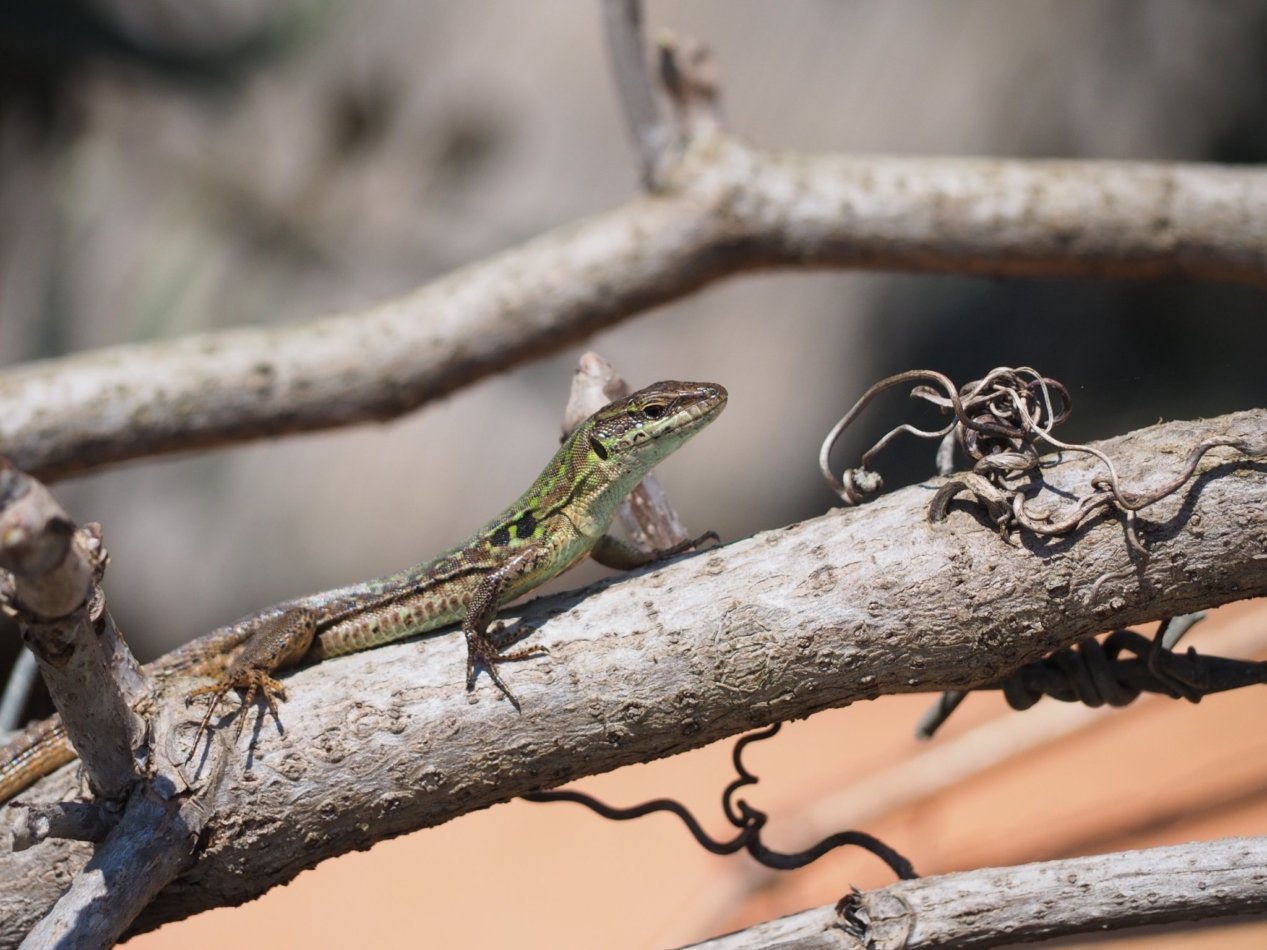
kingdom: Animalia
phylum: Chordata
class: Squamata
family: Lacertidae
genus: Podarcis
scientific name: Podarcis siculus
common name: Italian wall lizard
